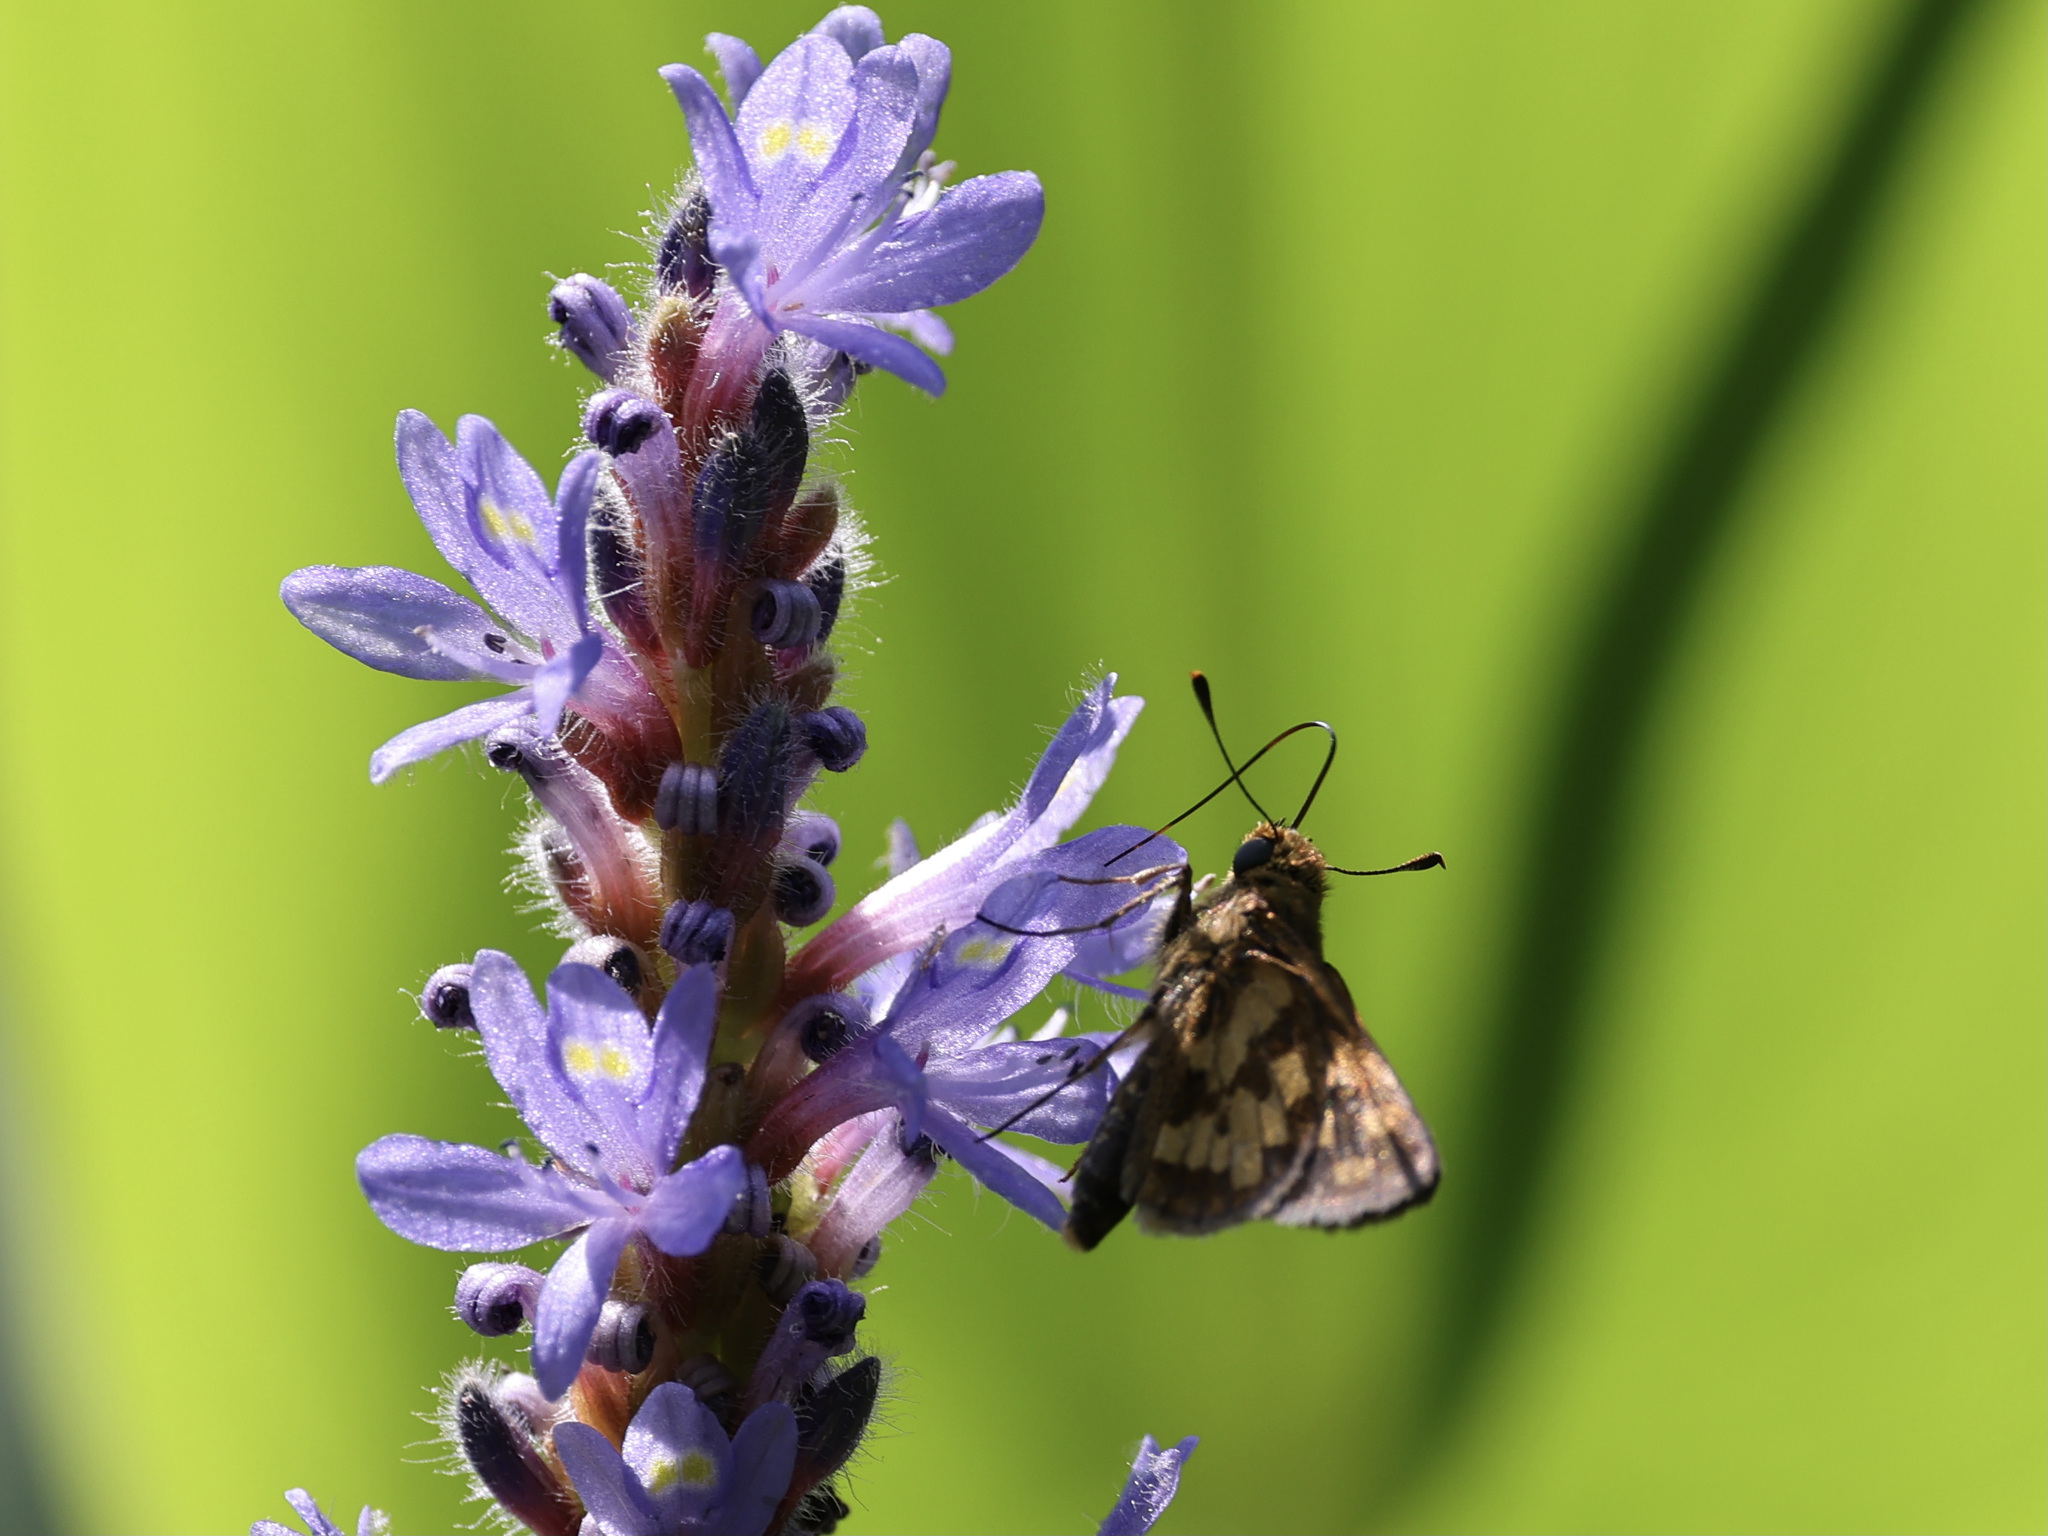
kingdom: Animalia
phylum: Arthropoda
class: Insecta
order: Lepidoptera
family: Hesperiidae
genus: Polites
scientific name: Polites coras
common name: Peck's skipper
